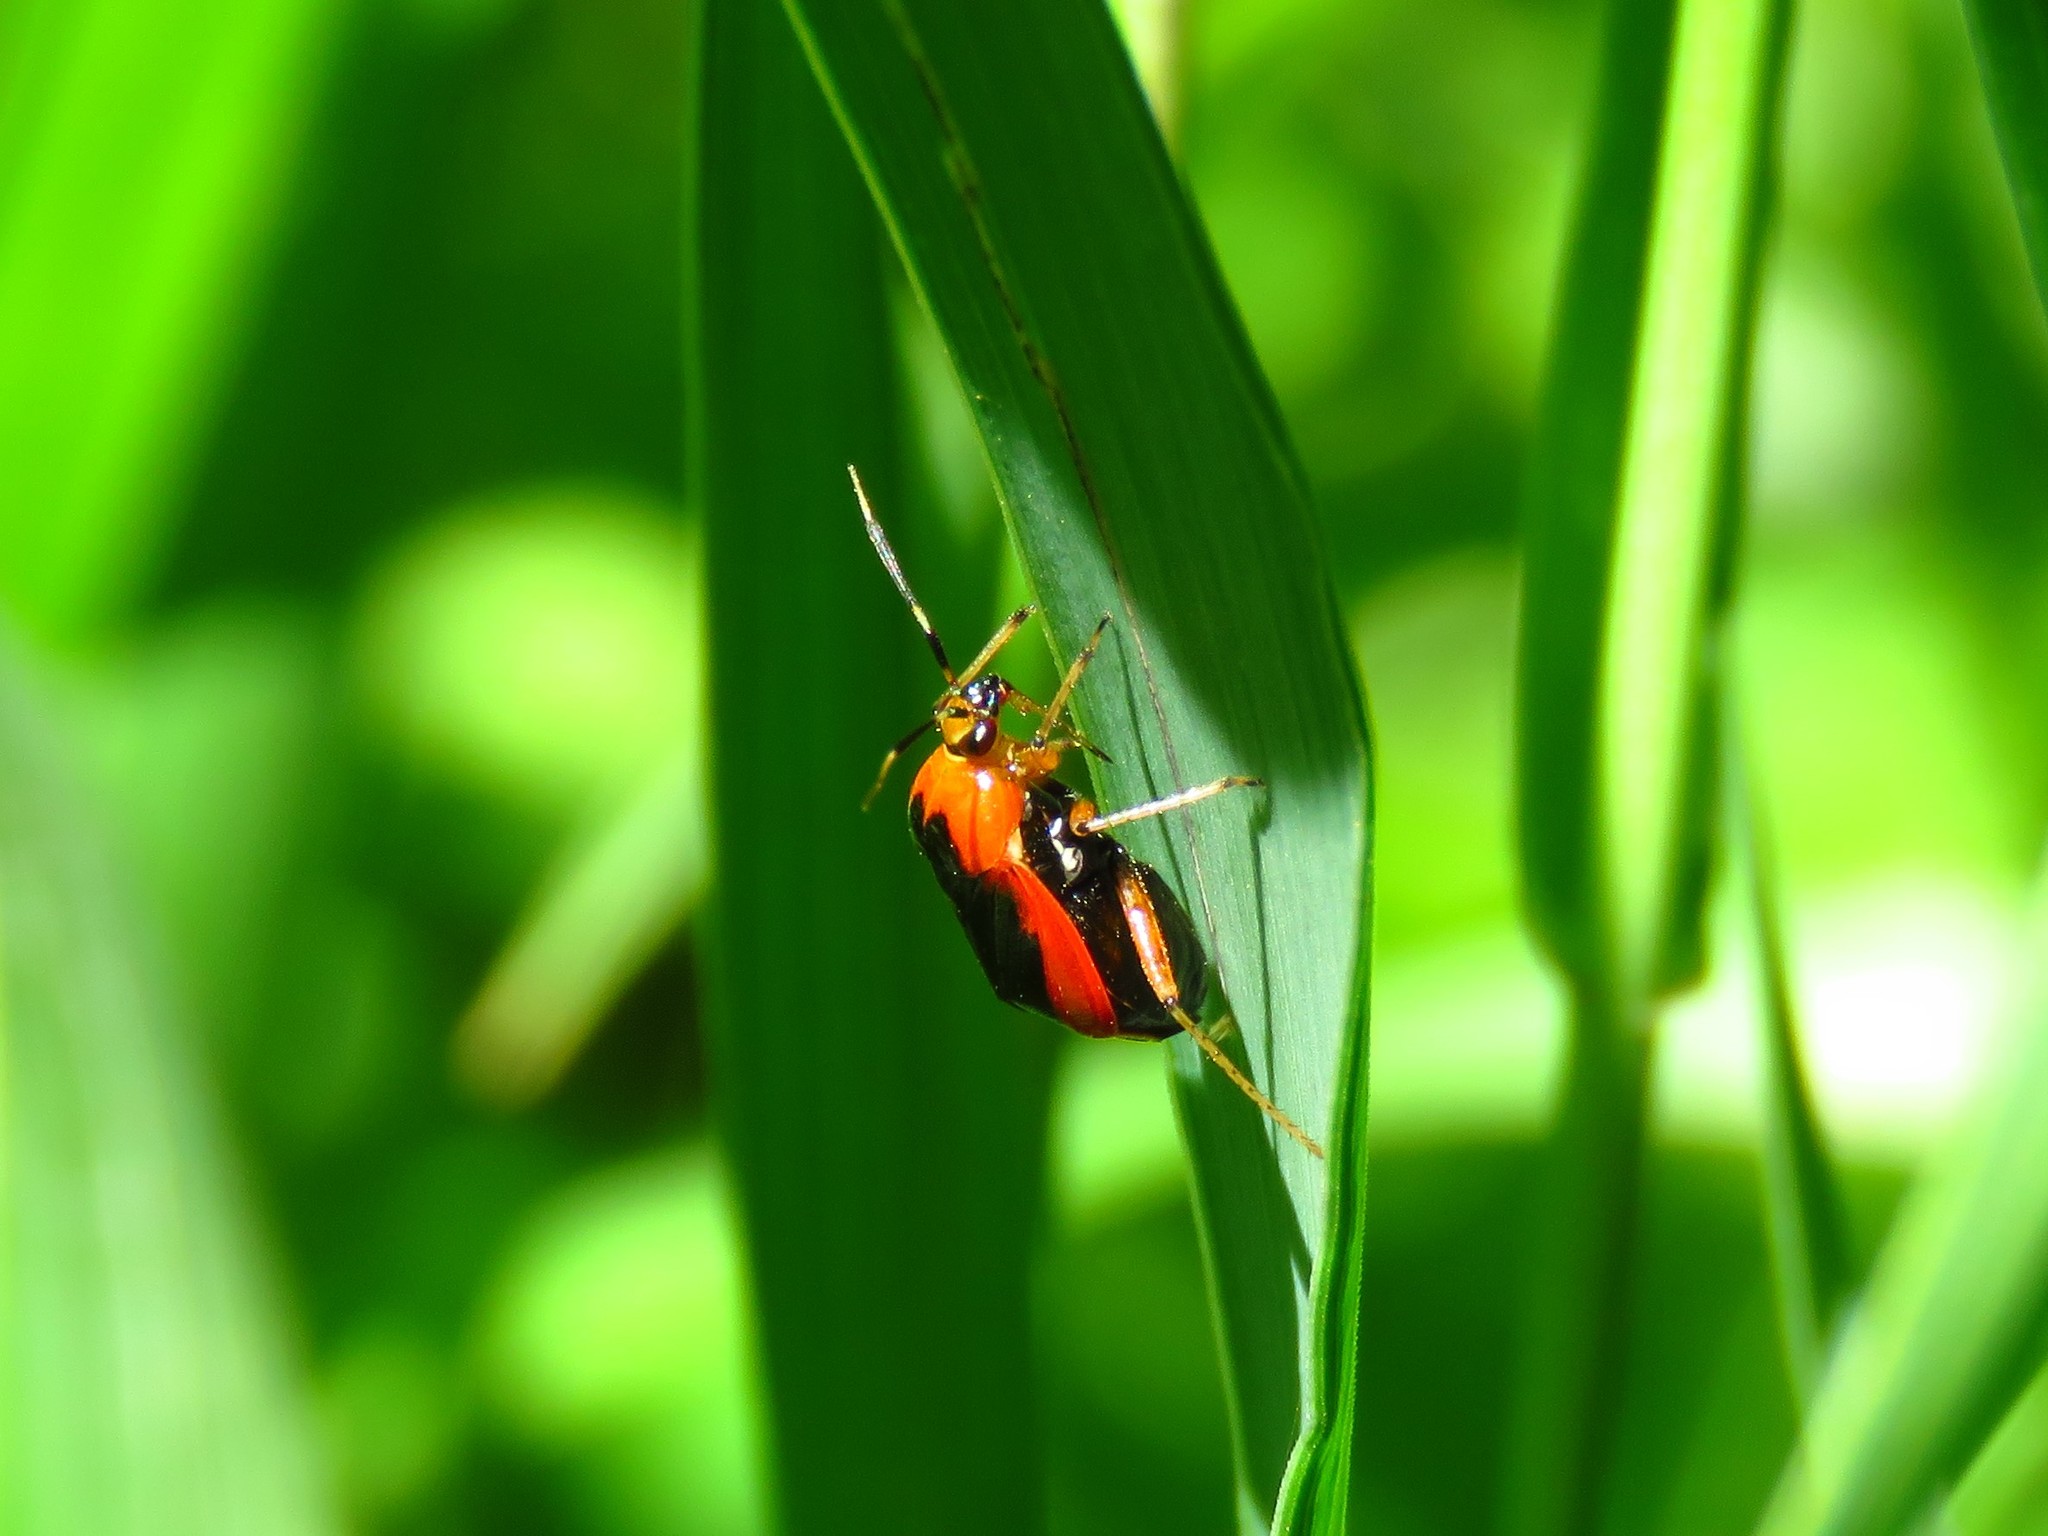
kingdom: Animalia
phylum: Arthropoda
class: Insecta
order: Hemiptera
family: Miridae
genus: Metriorrhynchomiris
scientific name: Metriorrhynchomiris dislocatus
